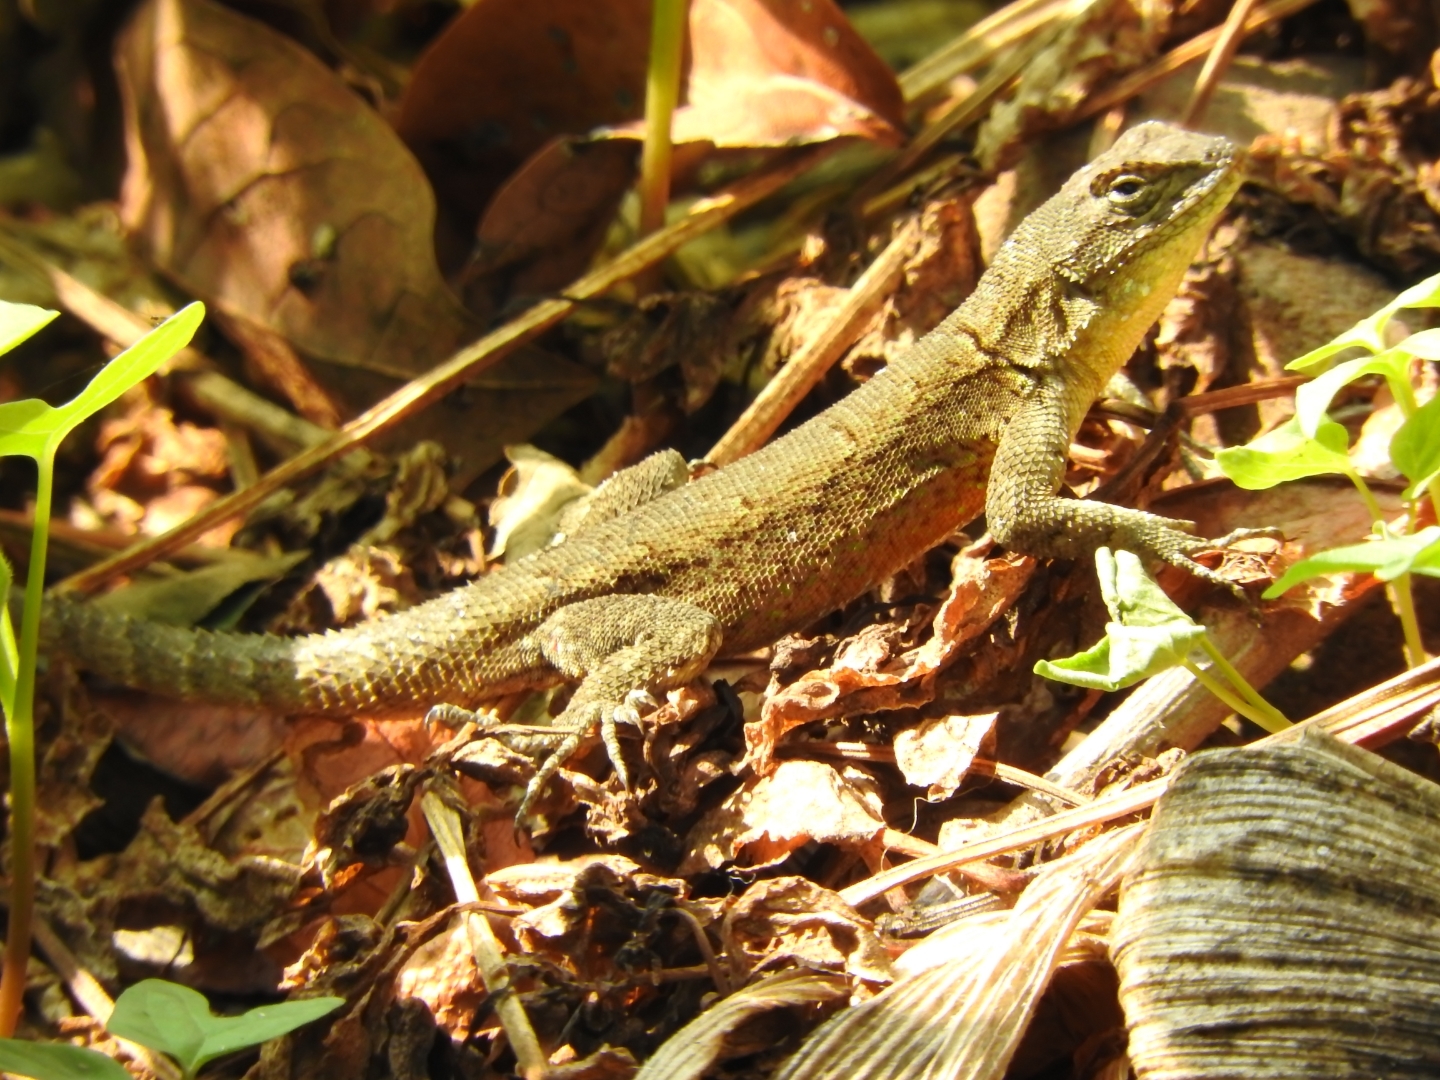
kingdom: Animalia
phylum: Chordata
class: Squamata
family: Phrynosomatidae
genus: Sceloporus
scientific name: Sceloporus grammicus
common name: Mesquite lizard
